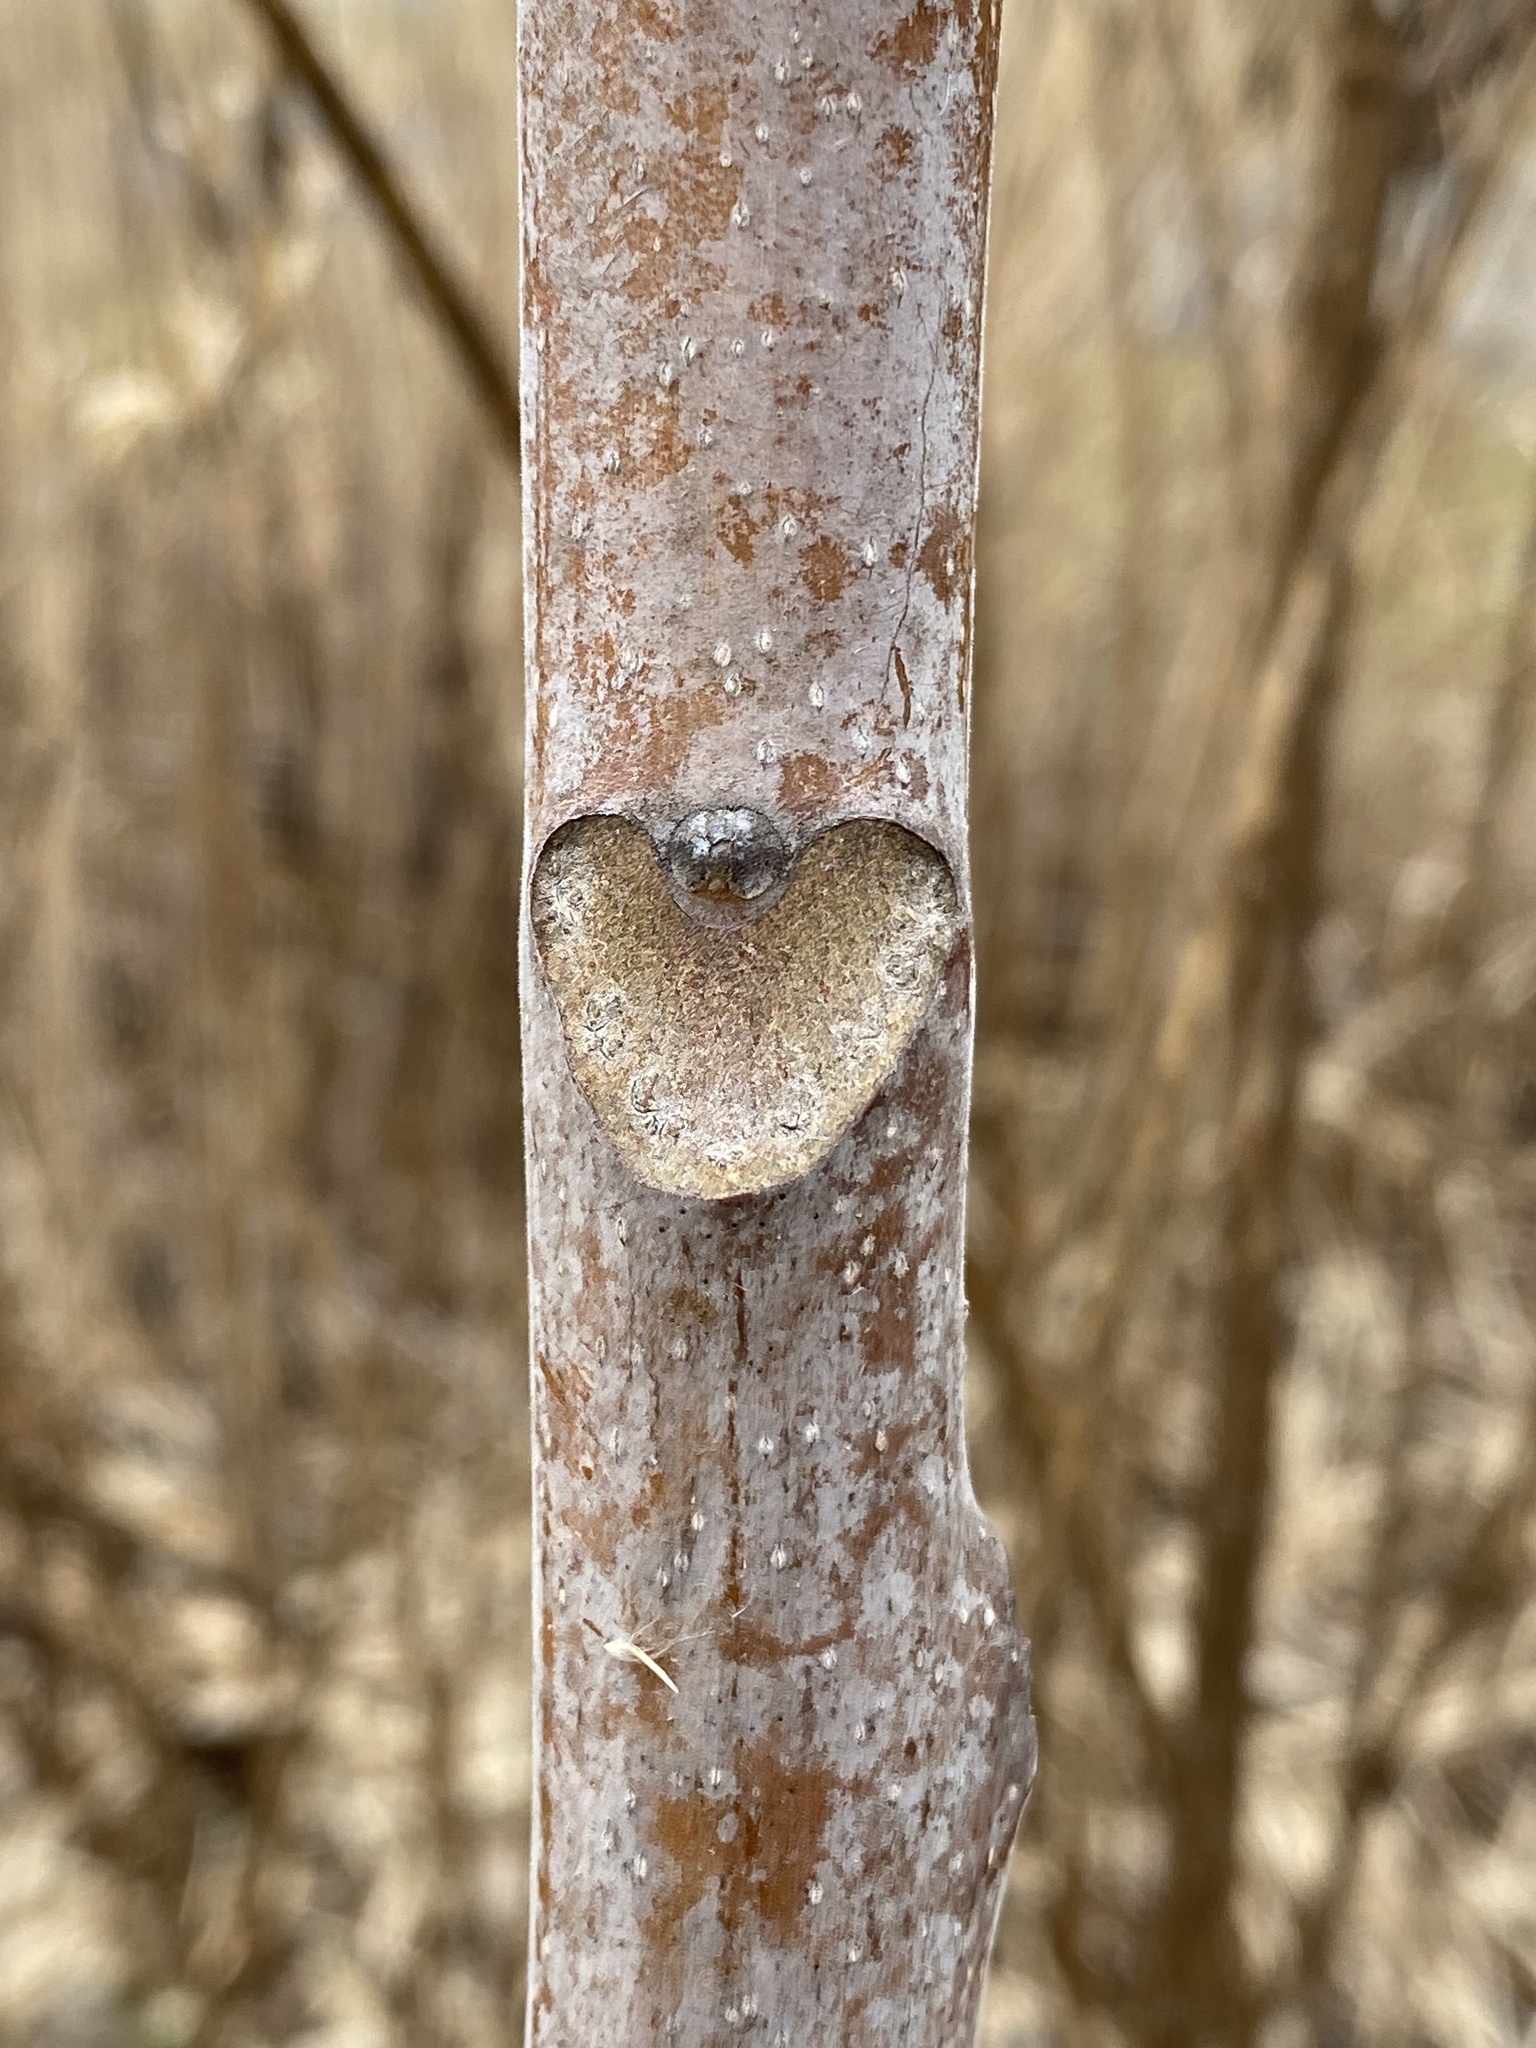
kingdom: Plantae
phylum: Tracheophyta
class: Magnoliopsida
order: Sapindales
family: Simaroubaceae
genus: Ailanthus
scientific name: Ailanthus altissima
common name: Tree-of-heaven
